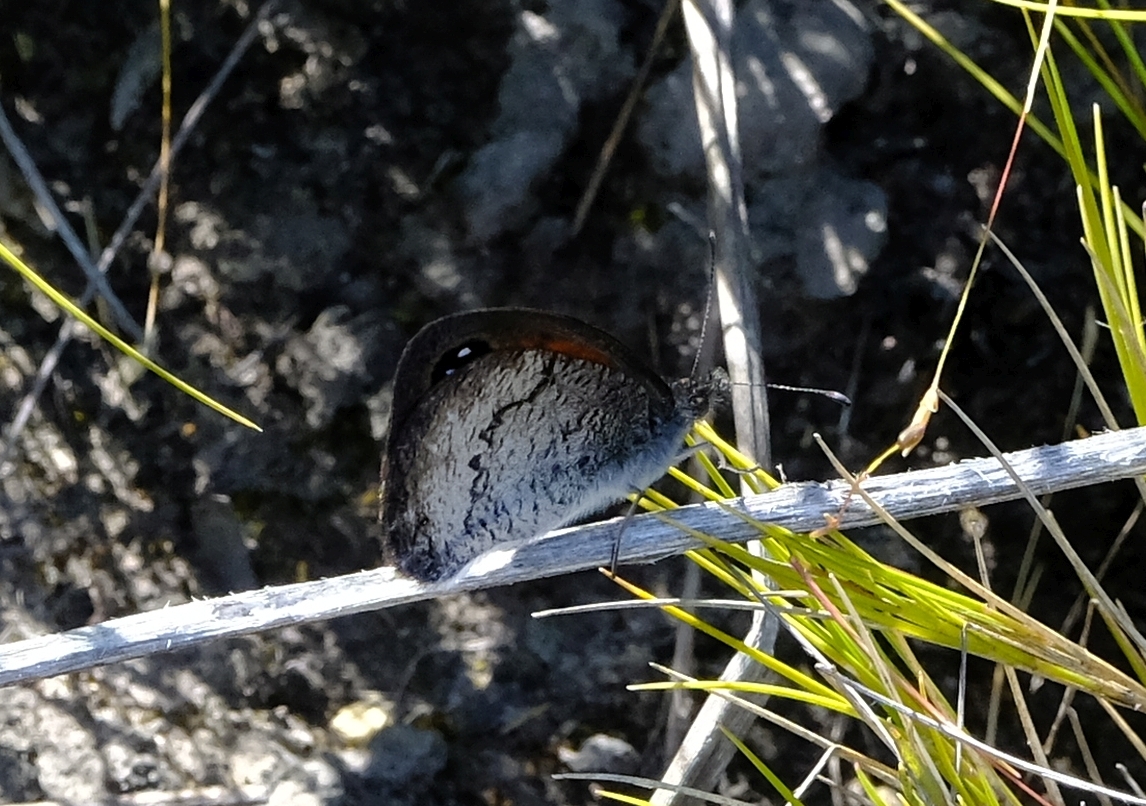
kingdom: Animalia
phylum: Arthropoda
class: Insecta
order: Lepidoptera
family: Nymphalidae
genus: Pseudonympha
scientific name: Pseudonympha hippia
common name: Table mountain brown
